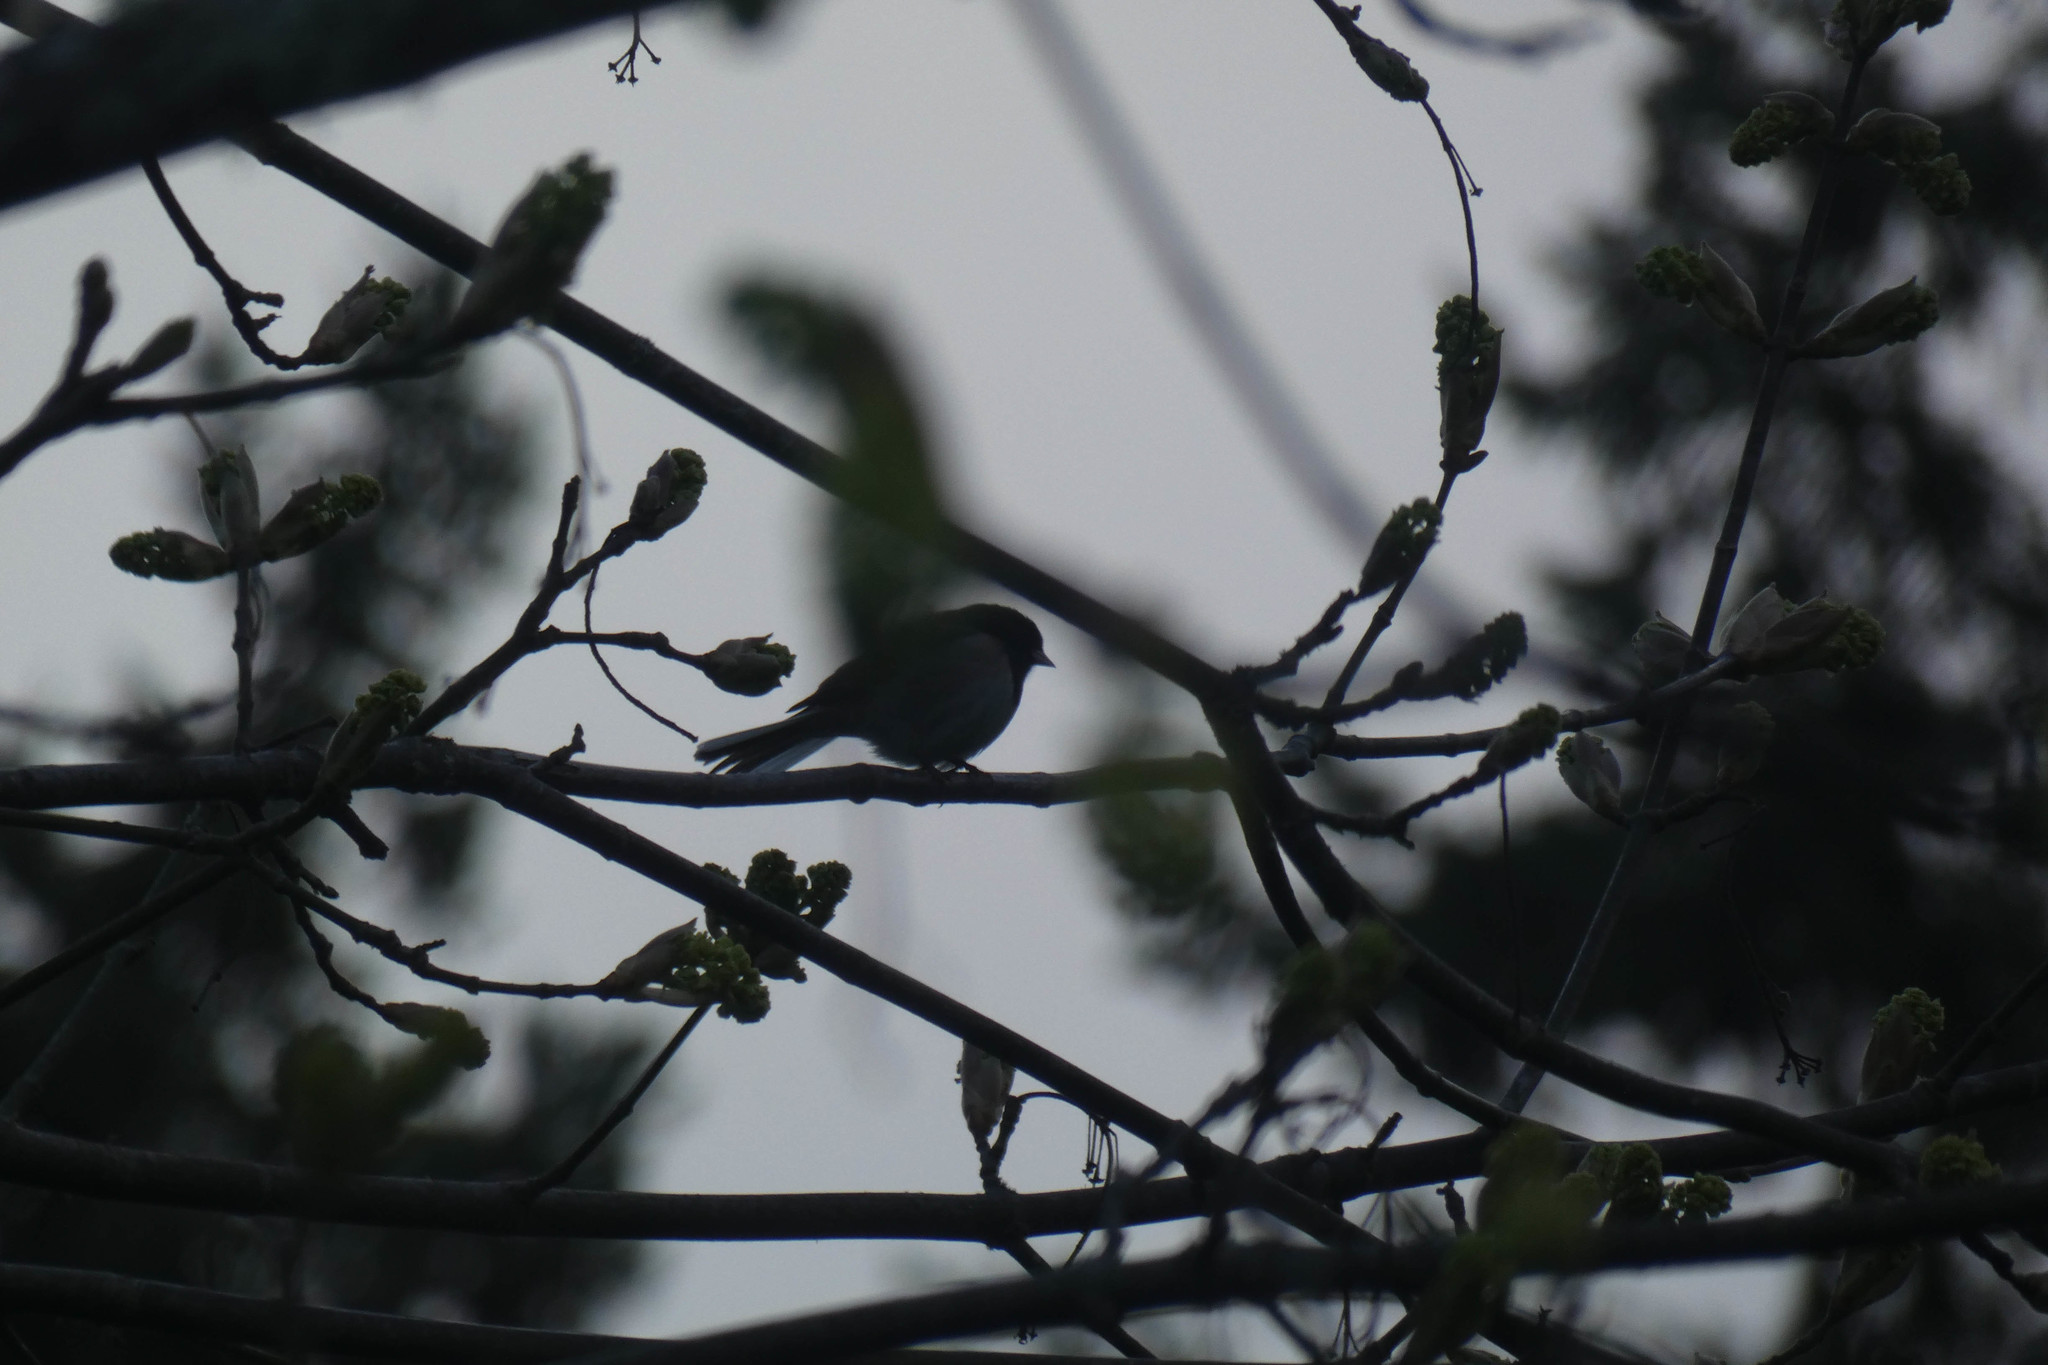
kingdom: Animalia
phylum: Chordata
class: Aves
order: Passeriformes
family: Passerellidae
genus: Junco
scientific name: Junco hyemalis
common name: Dark-eyed junco
